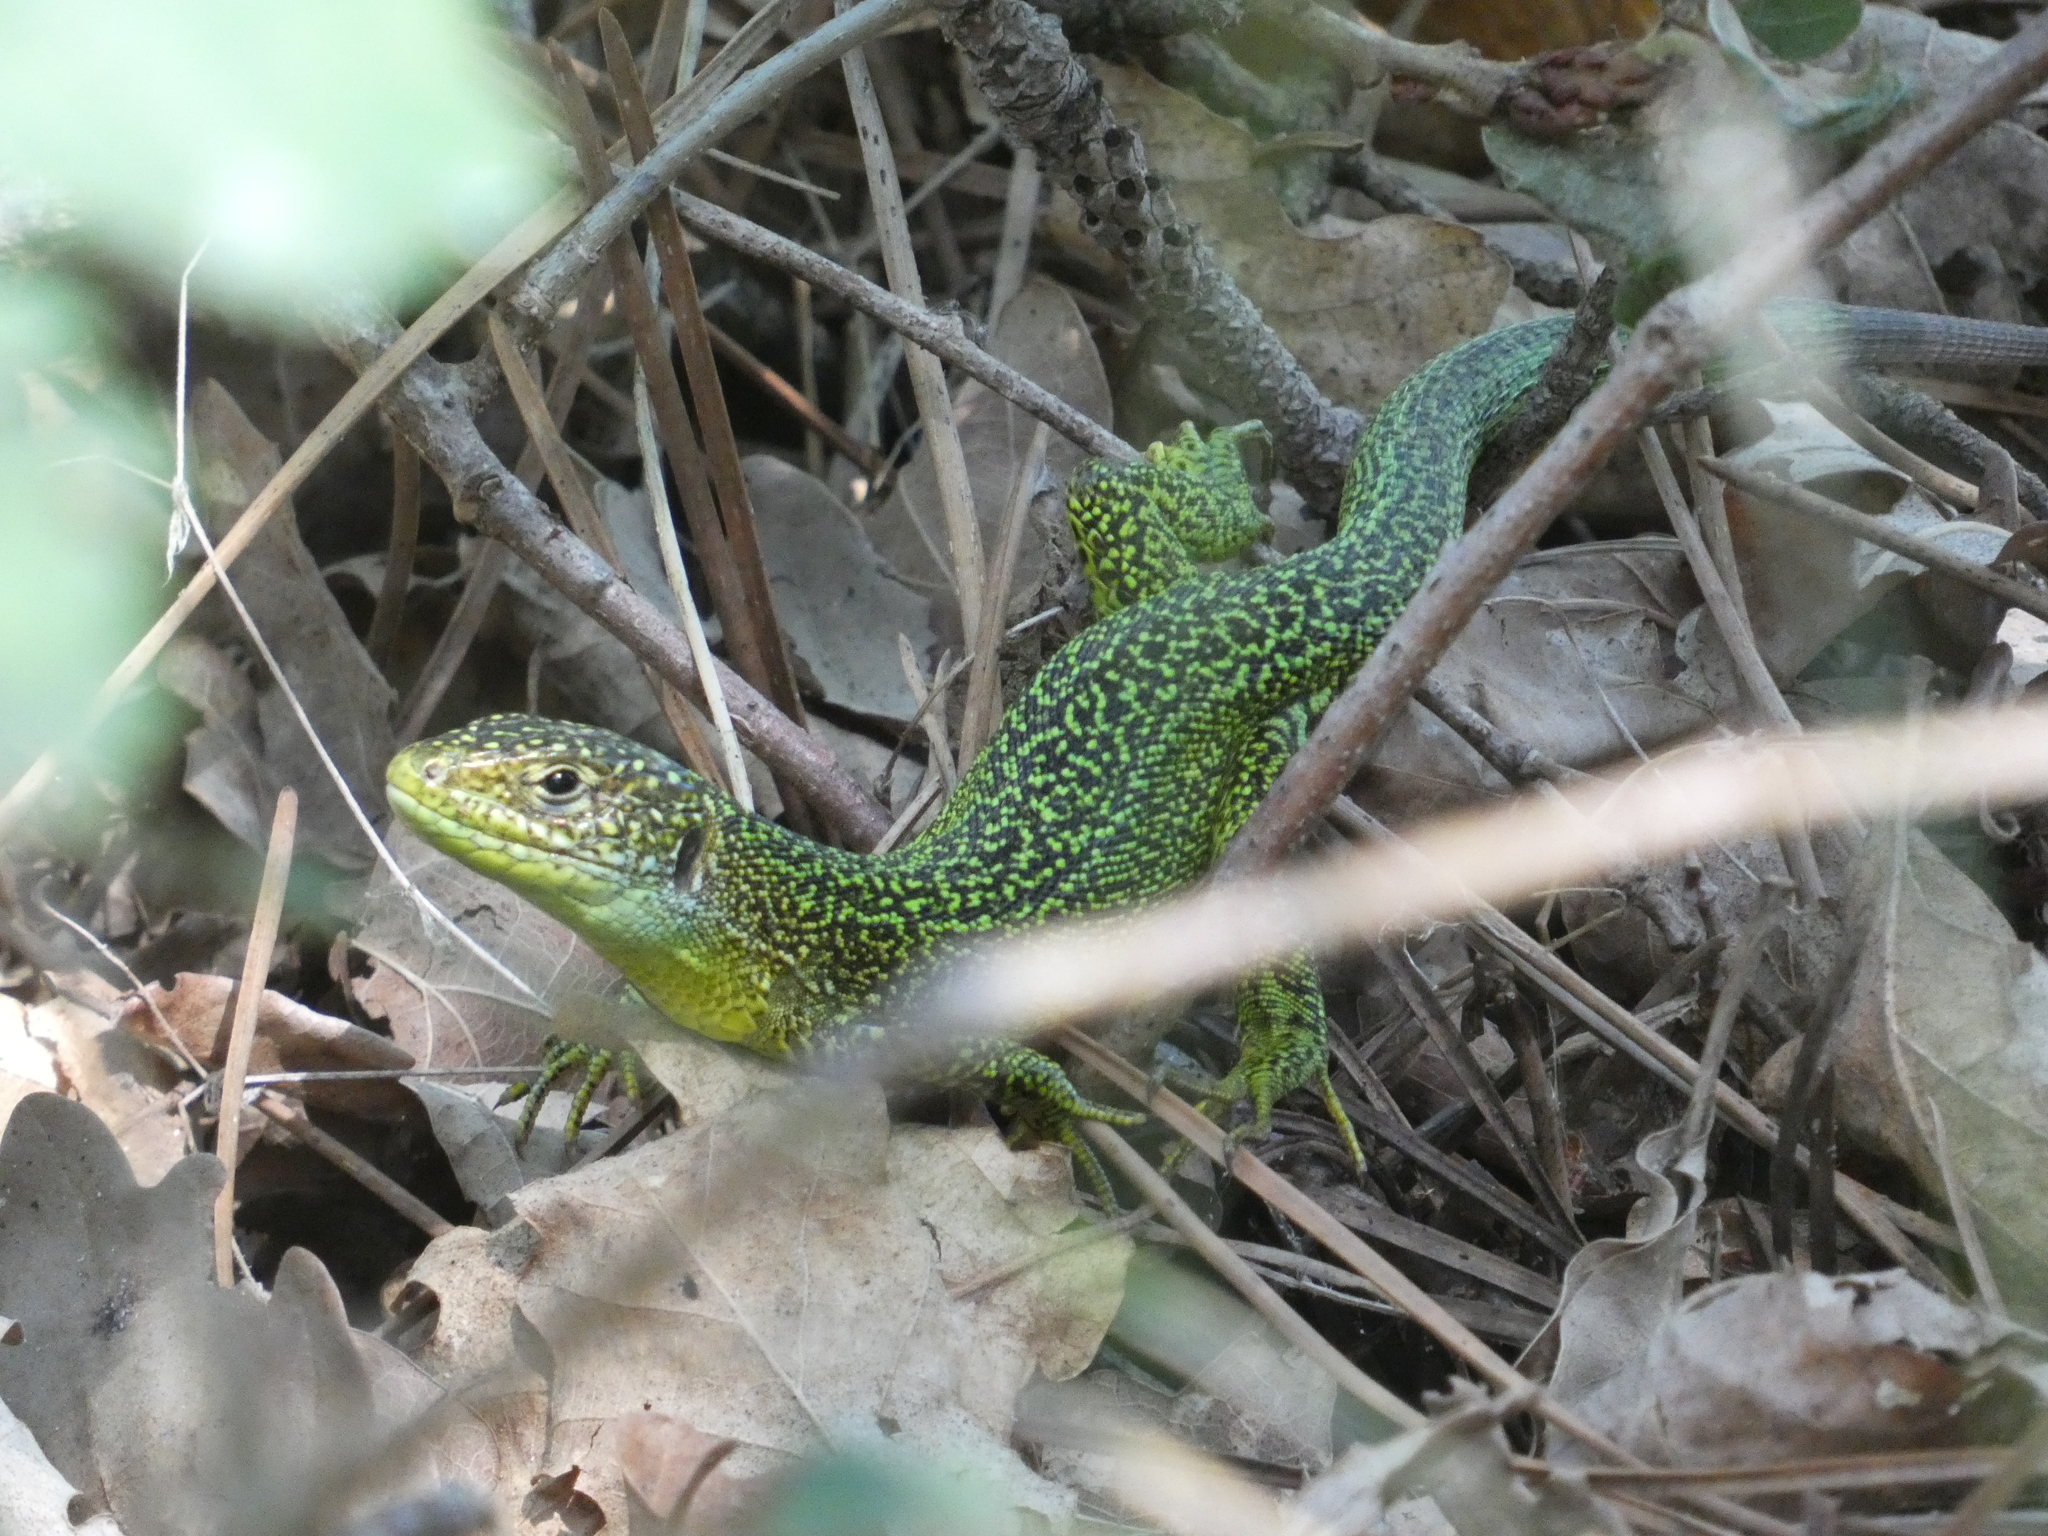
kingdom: Animalia
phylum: Chordata
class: Squamata
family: Lacertidae
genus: Lacerta
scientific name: Lacerta bilineata
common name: Western green lizard
